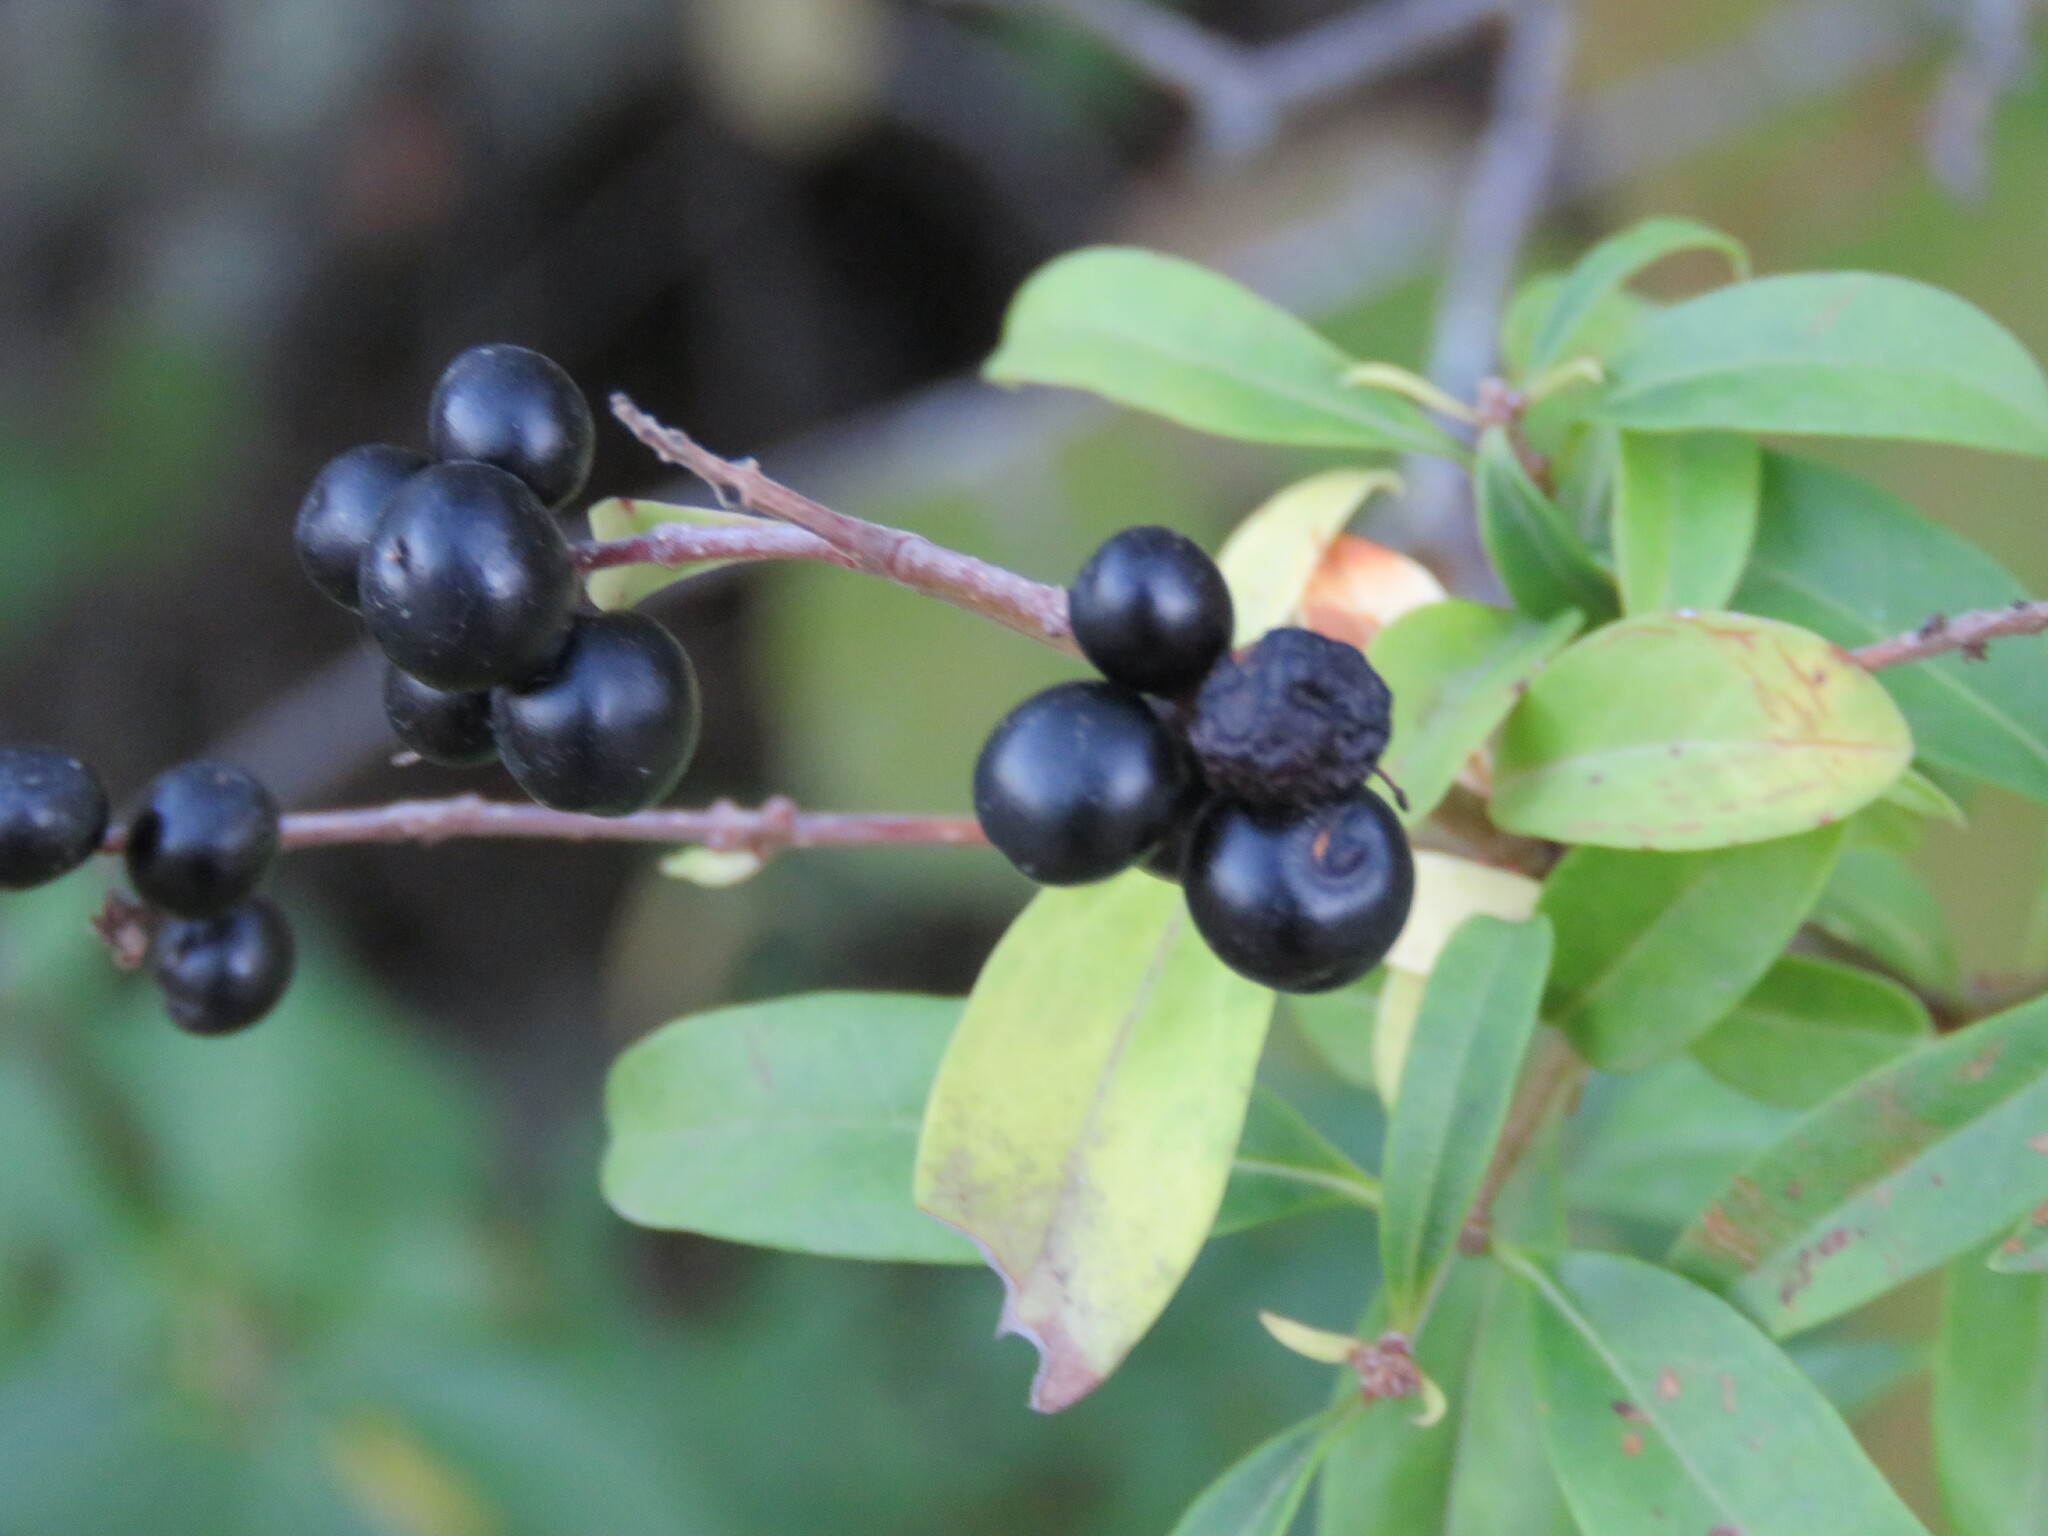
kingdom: Plantae
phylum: Tracheophyta
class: Magnoliopsida
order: Lamiales
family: Oleaceae
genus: Ligustrum
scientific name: Ligustrum vulgare
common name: Wild privet
